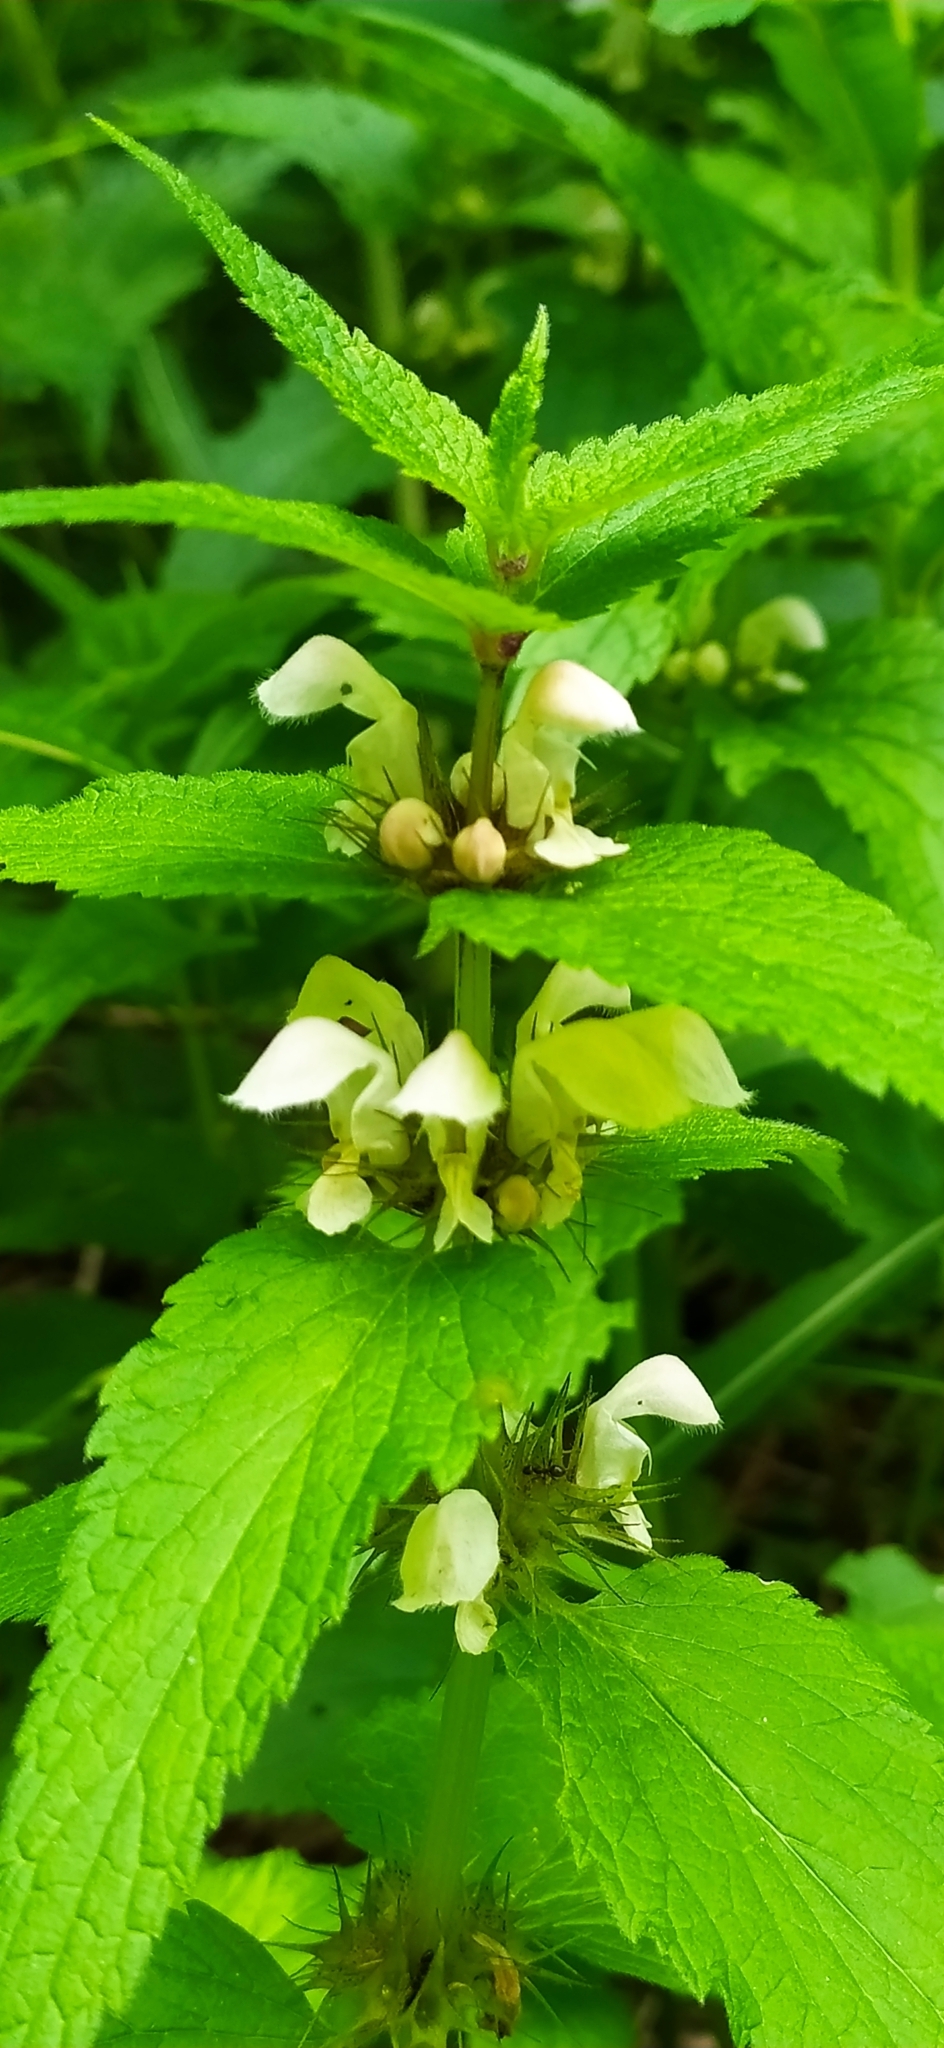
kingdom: Plantae
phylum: Tracheophyta
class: Magnoliopsida
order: Lamiales
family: Lamiaceae
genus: Lamium
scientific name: Lamium album
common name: White dead-nettle
